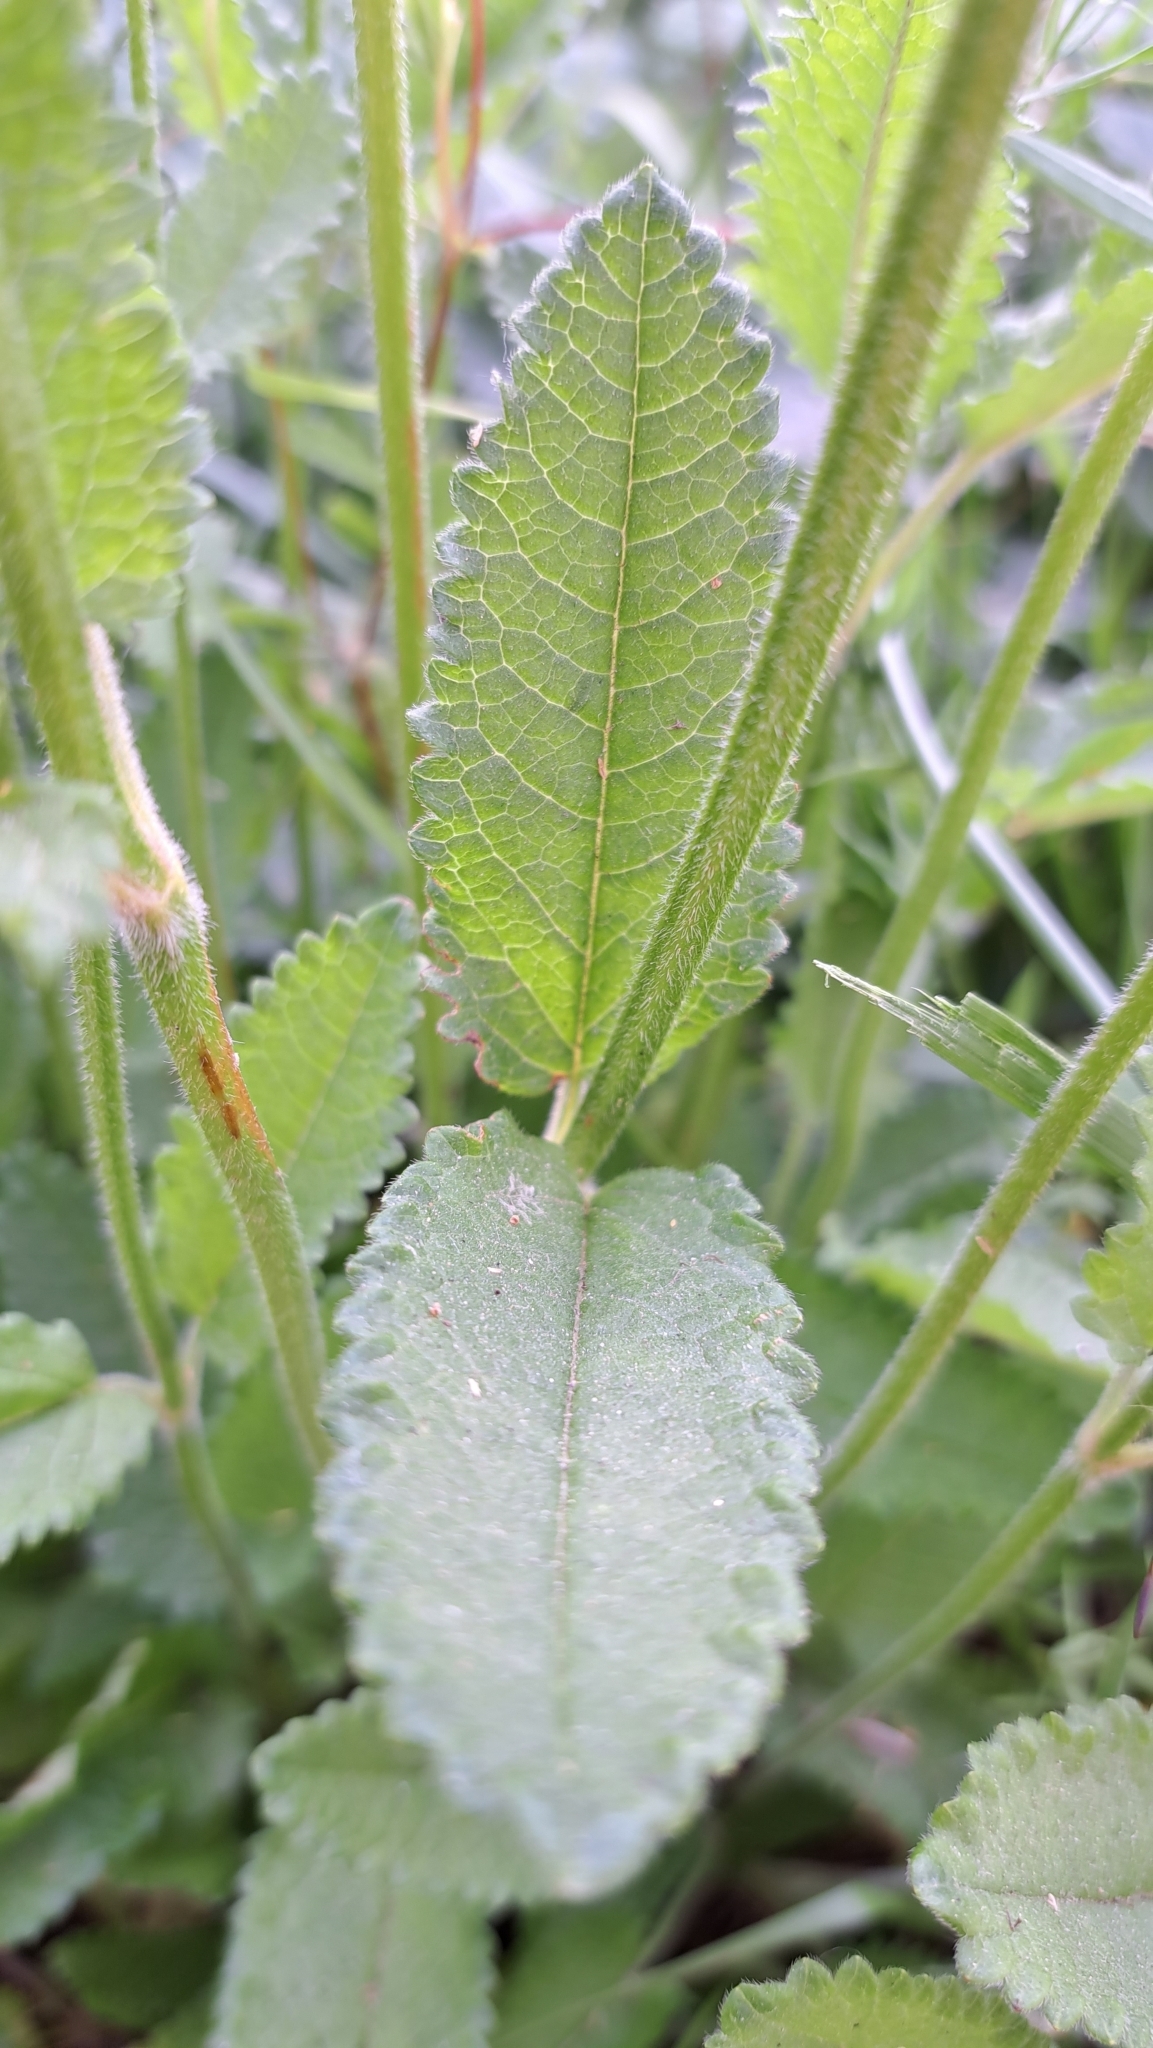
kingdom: Plantae
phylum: Tracheophyta
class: Magnoliopsida
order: Lamiales
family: Lamiaceae
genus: Betonica
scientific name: Betonica officinalis
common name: Bishop's-wort
